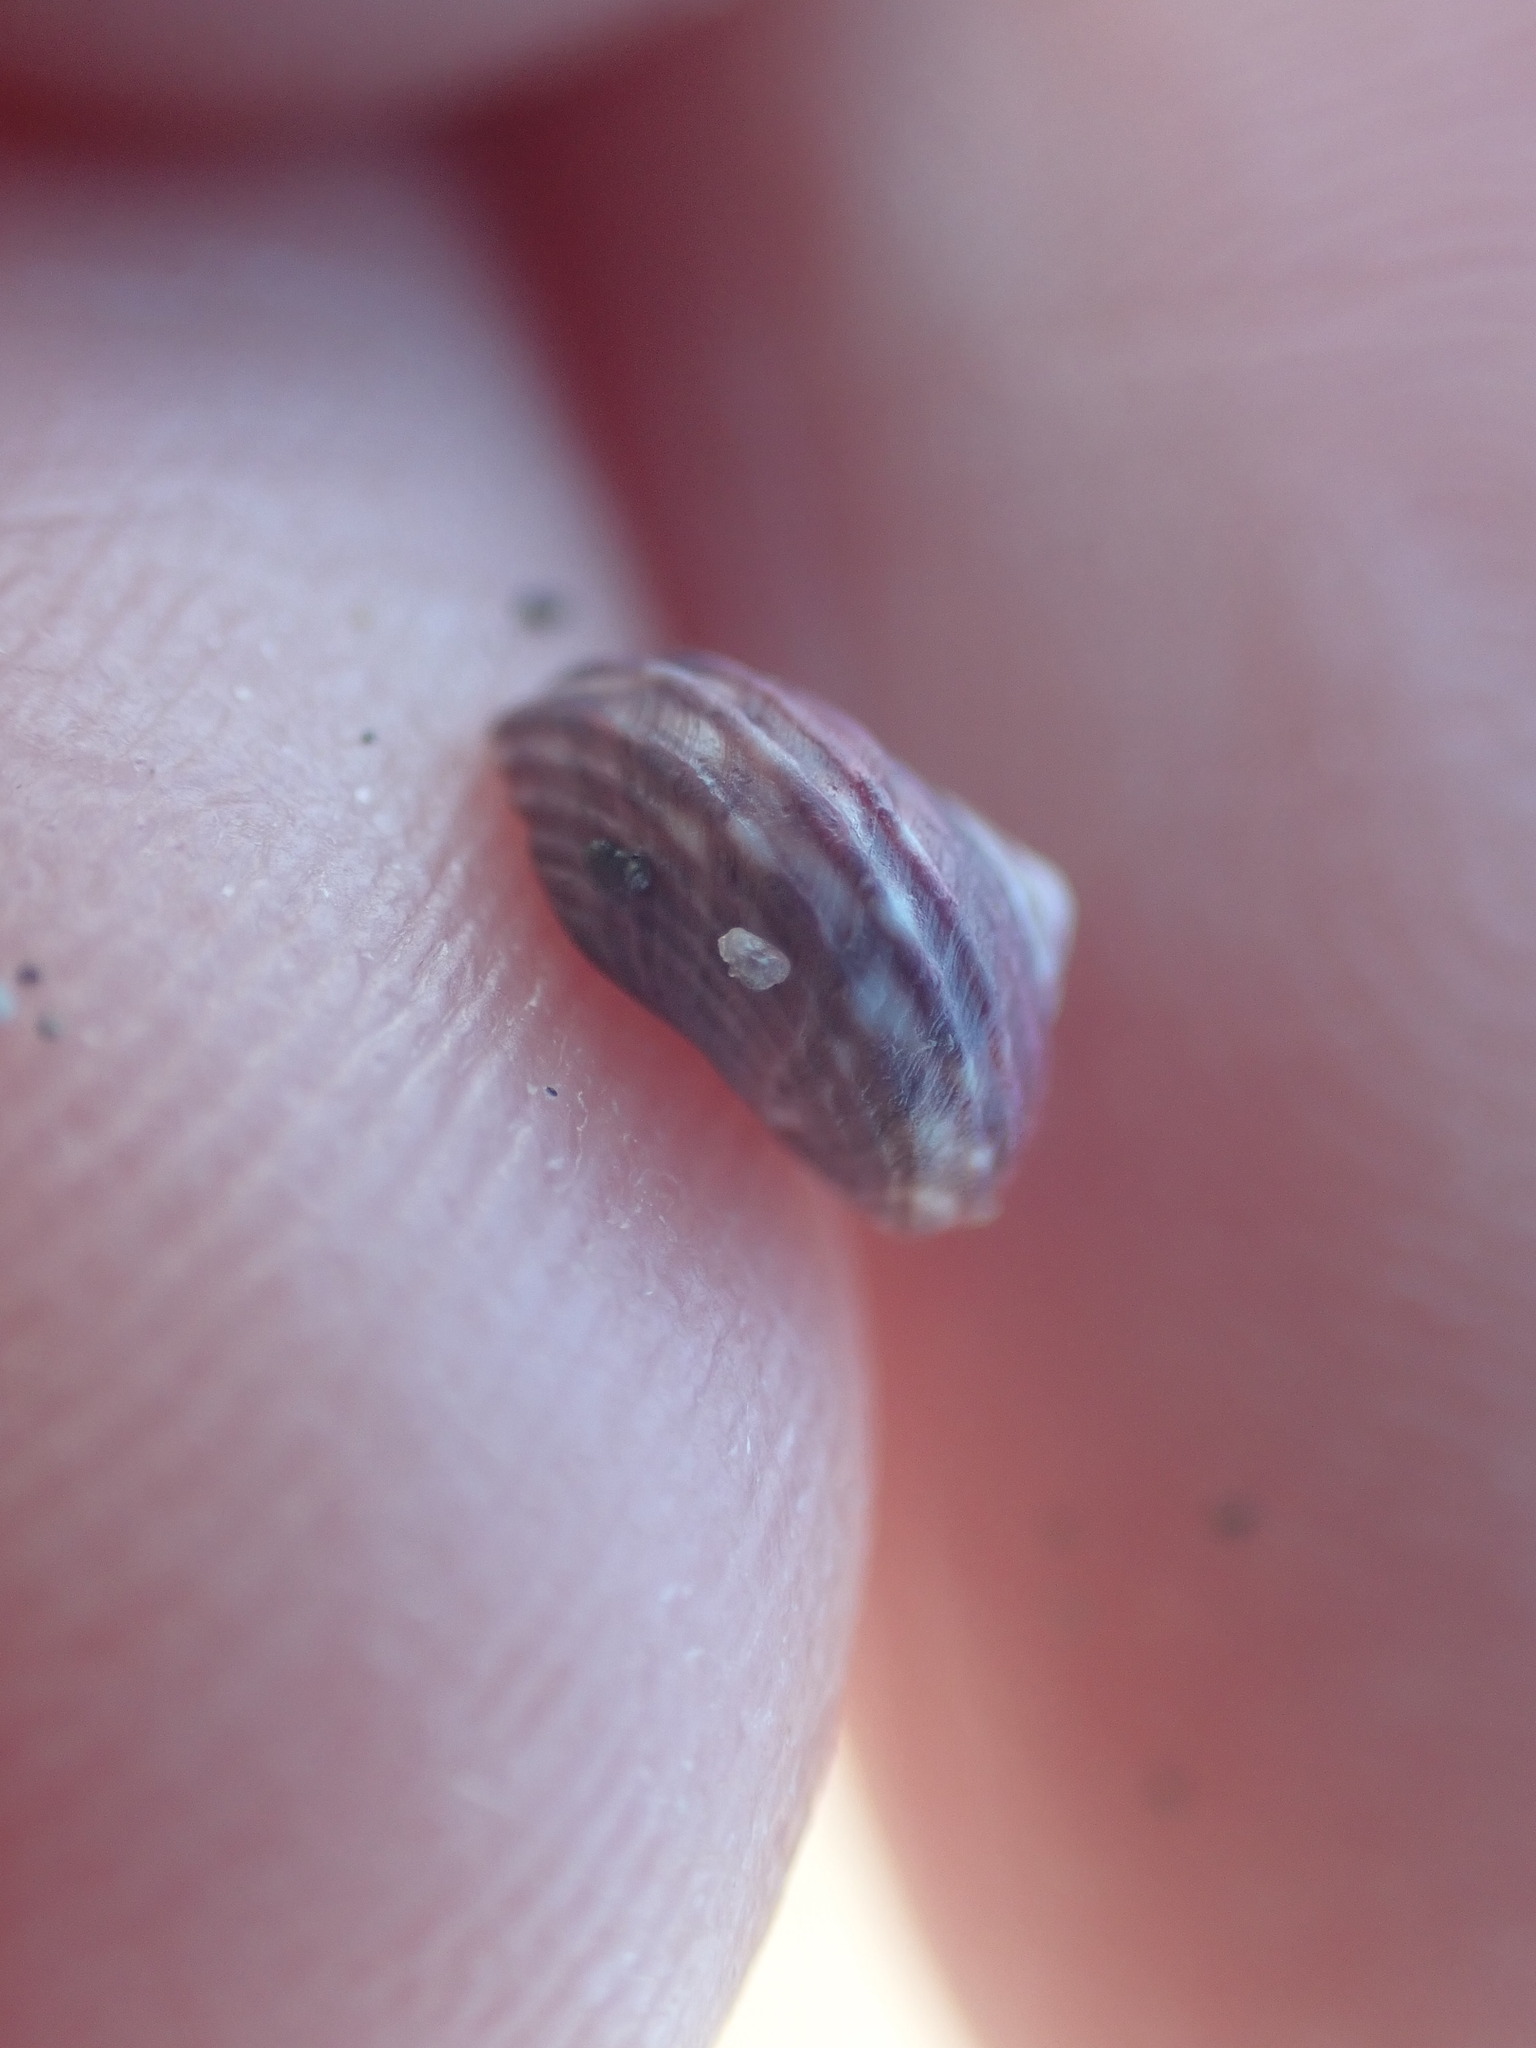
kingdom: Animalia
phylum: Mollusca
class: Gastropoda
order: Trochida
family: Trochidae
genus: Diloma
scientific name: Diloma subrostratum
